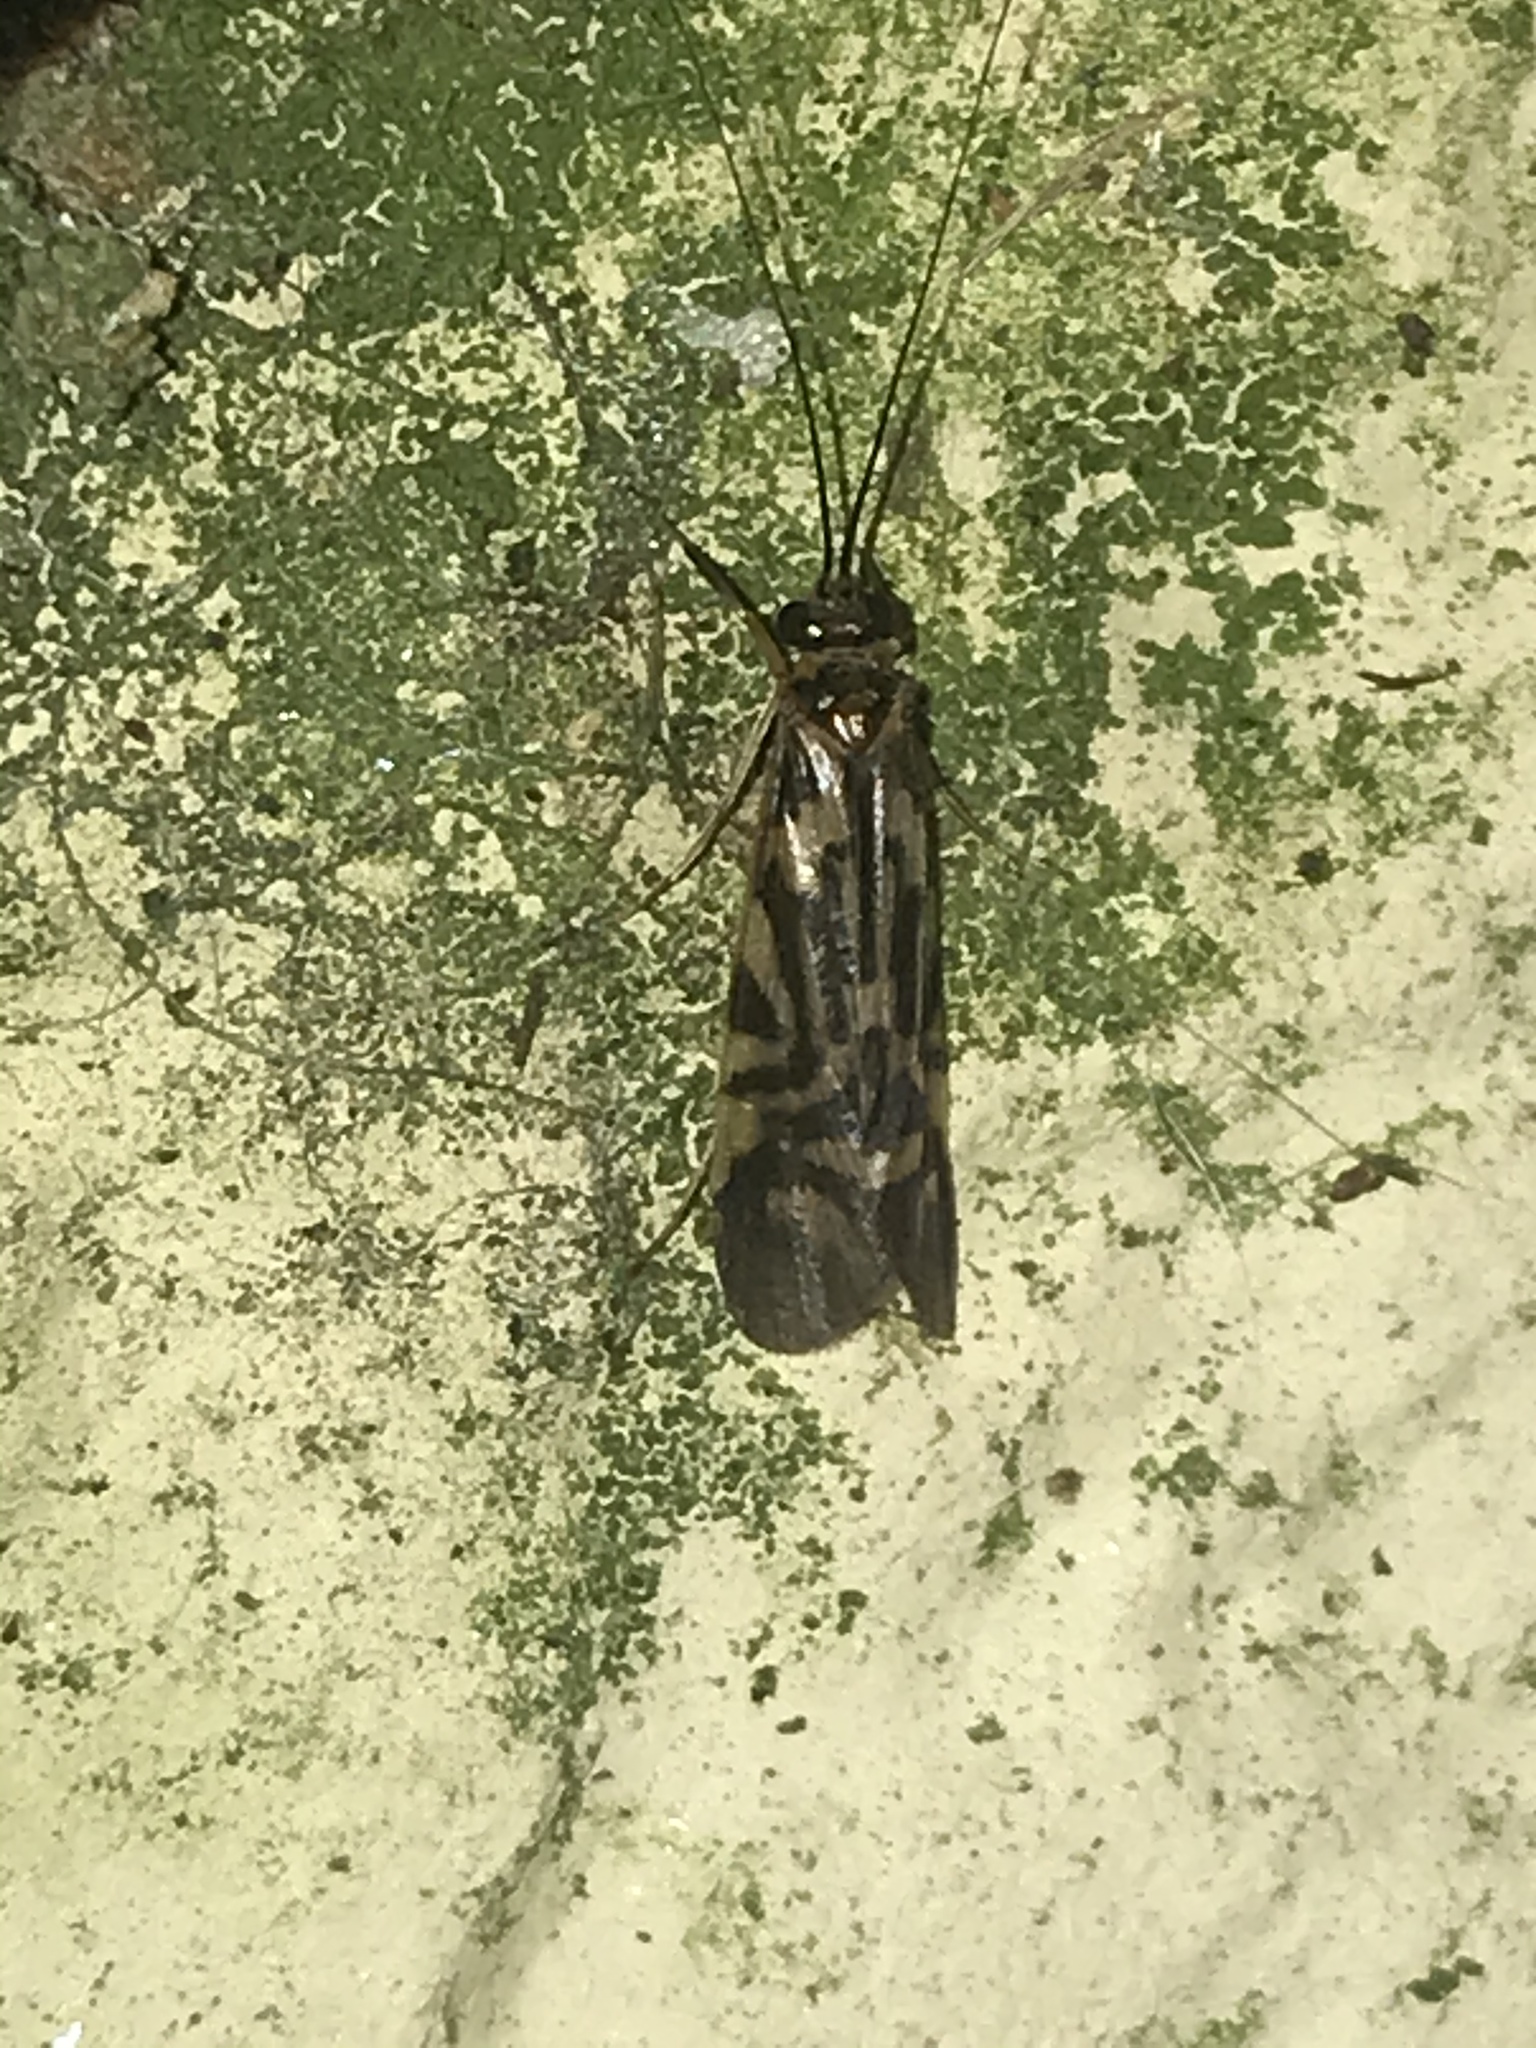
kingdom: Animalia
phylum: Arthropoda
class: Insecta
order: Trichoptera
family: Hydropsychidae
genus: Macrostemum
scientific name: Macrostemum carolina
